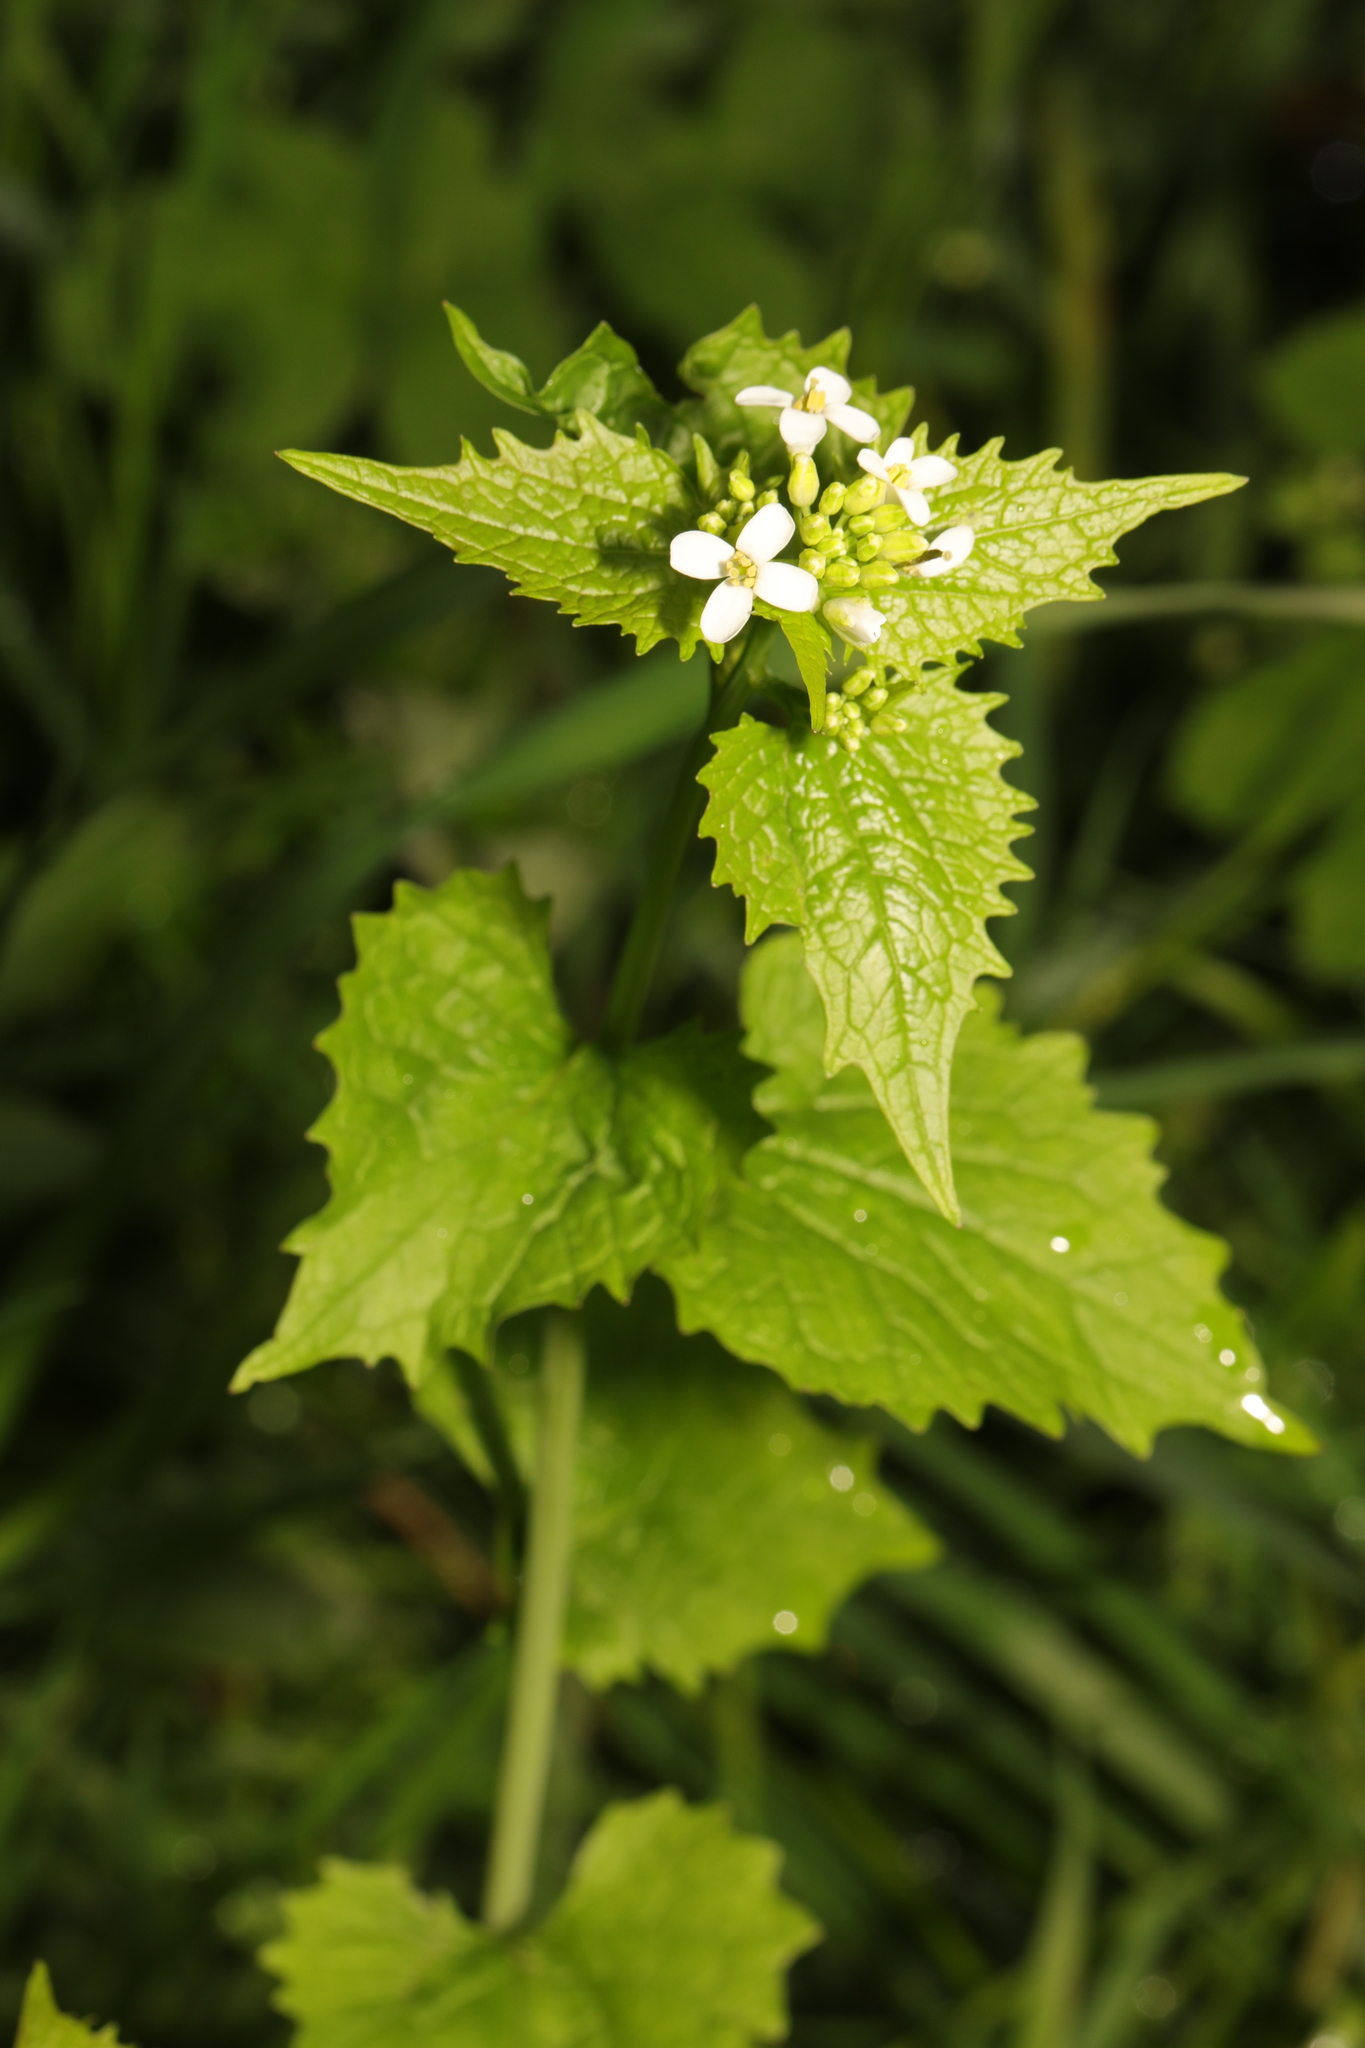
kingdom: Plantae
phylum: Tracheophyta
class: Magnoliopsida
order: Brassicales
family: Brassicaceae
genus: Alliaria
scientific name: Alliaria petiolata
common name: Garlic mustard
